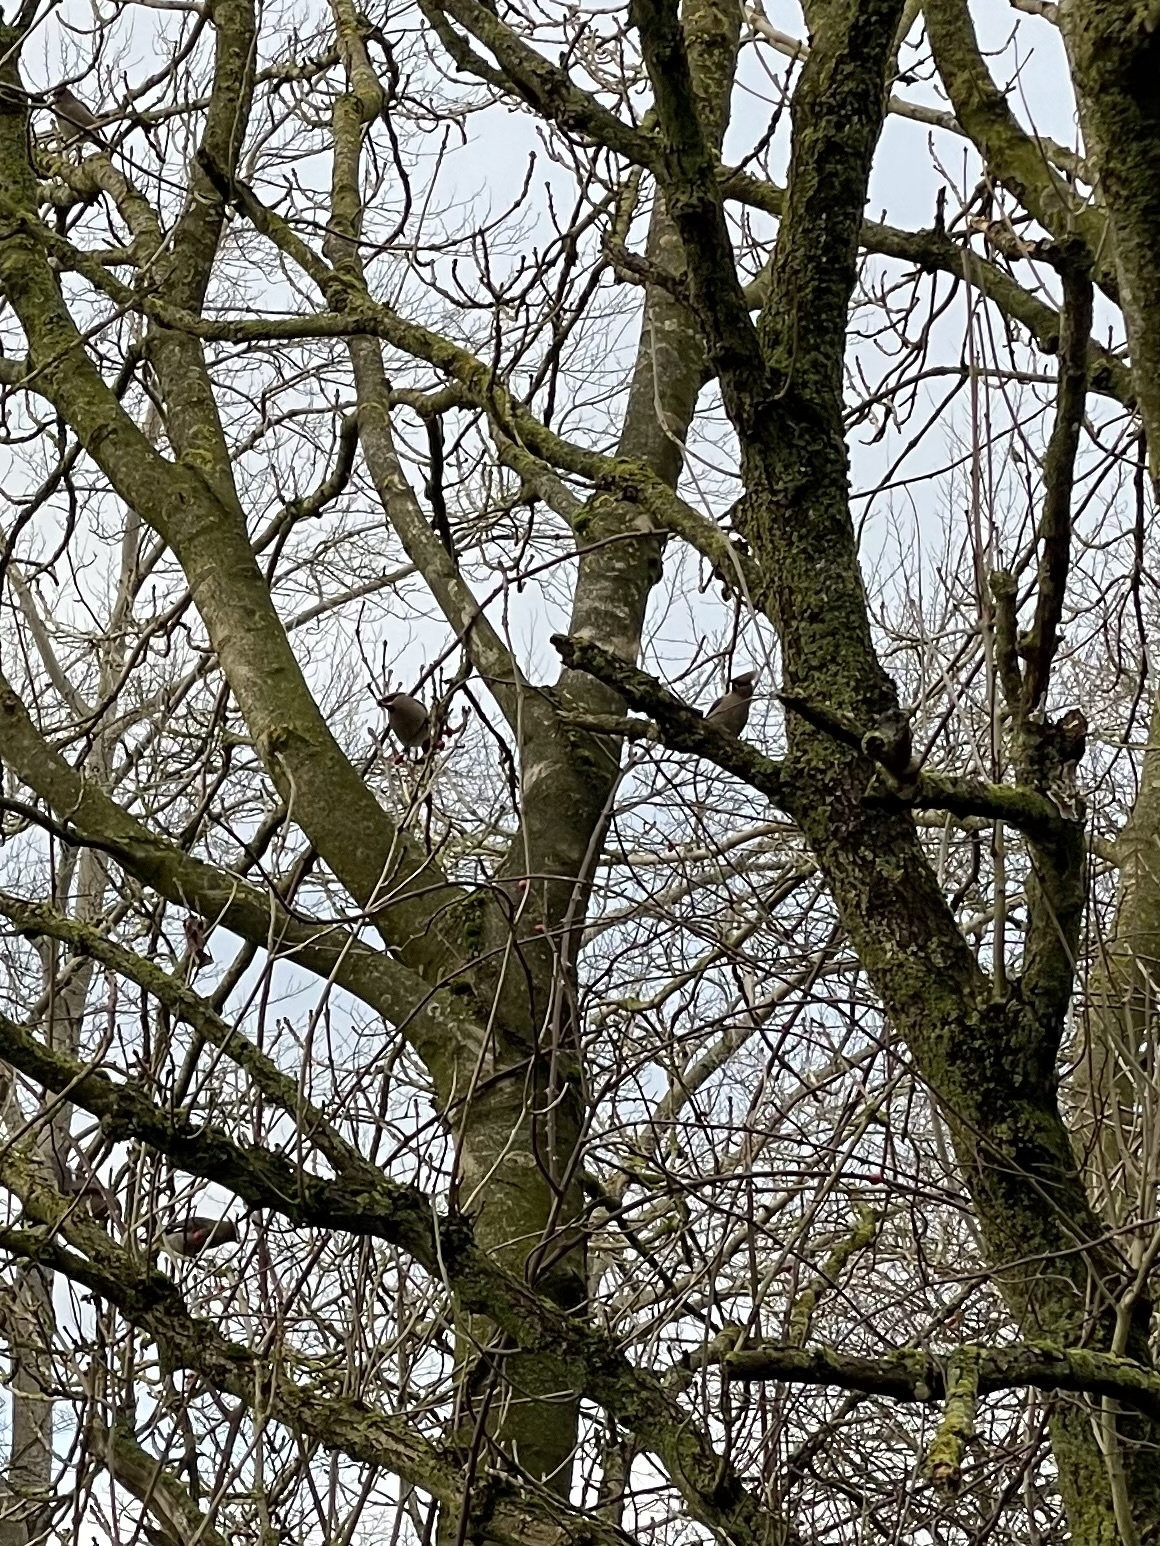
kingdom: Animalia
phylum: Chordata
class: Aves
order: Passeriformes
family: Bombycillidae
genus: Bombycilla
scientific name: Bombycilla garrulus
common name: Bohemian waxwing
